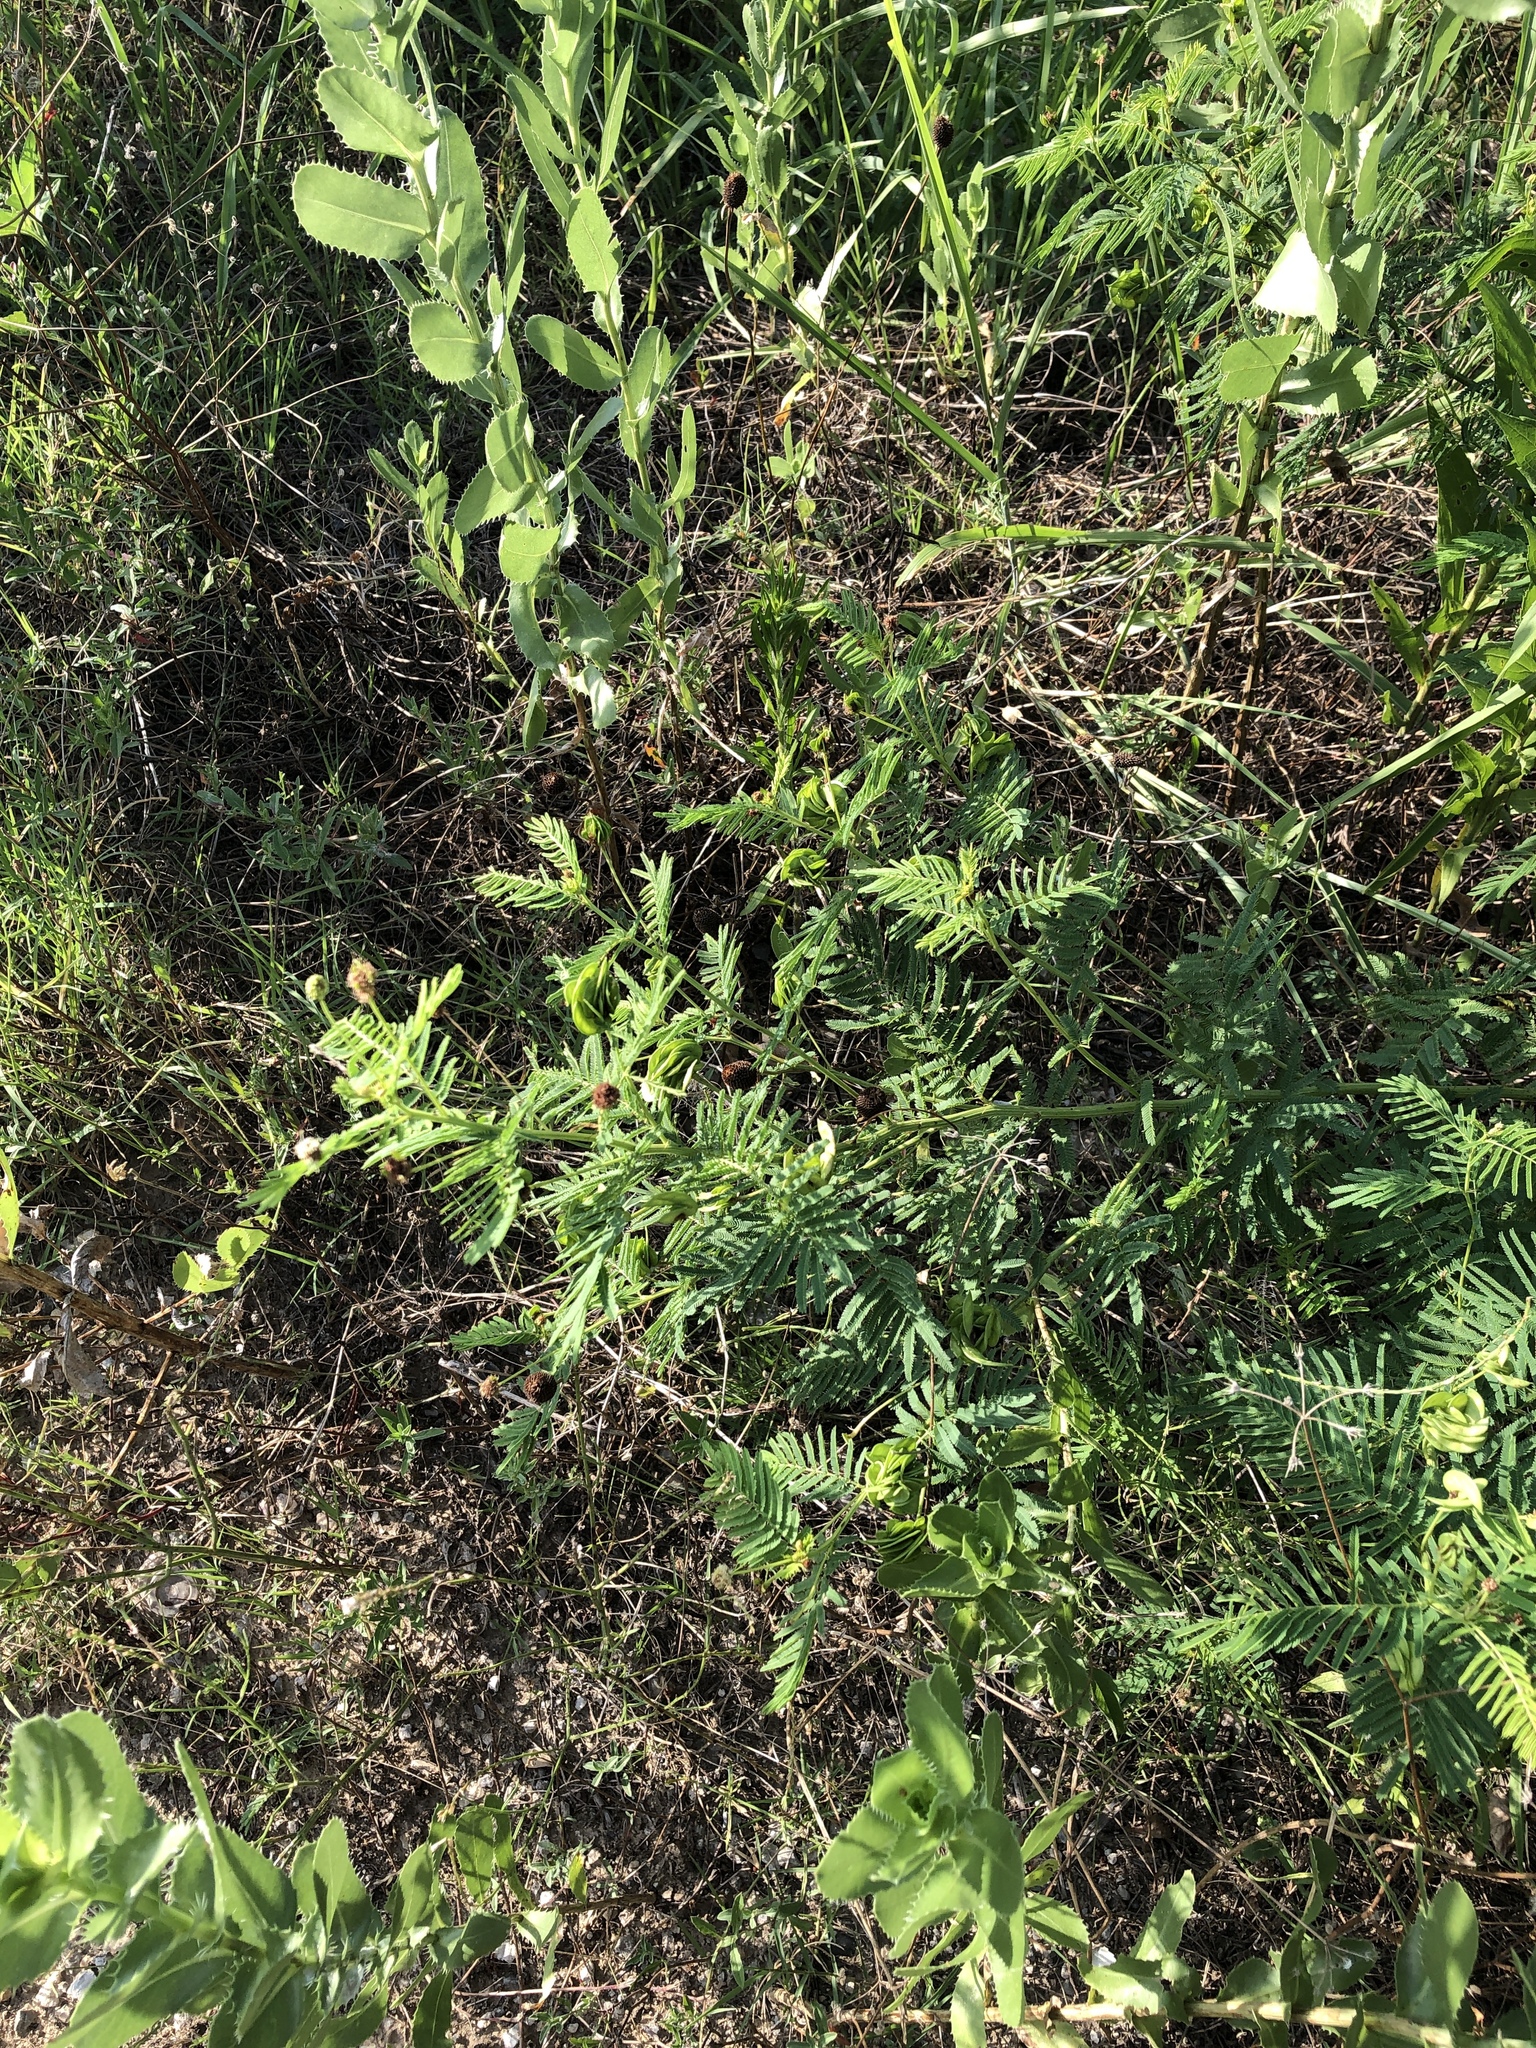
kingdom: Plantae
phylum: Tracheophyta
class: Magnoliopsida
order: Fabales
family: Fabaceae
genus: Desmanthus
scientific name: Desmanthus illinoensis
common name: Illinois bundle-flower
